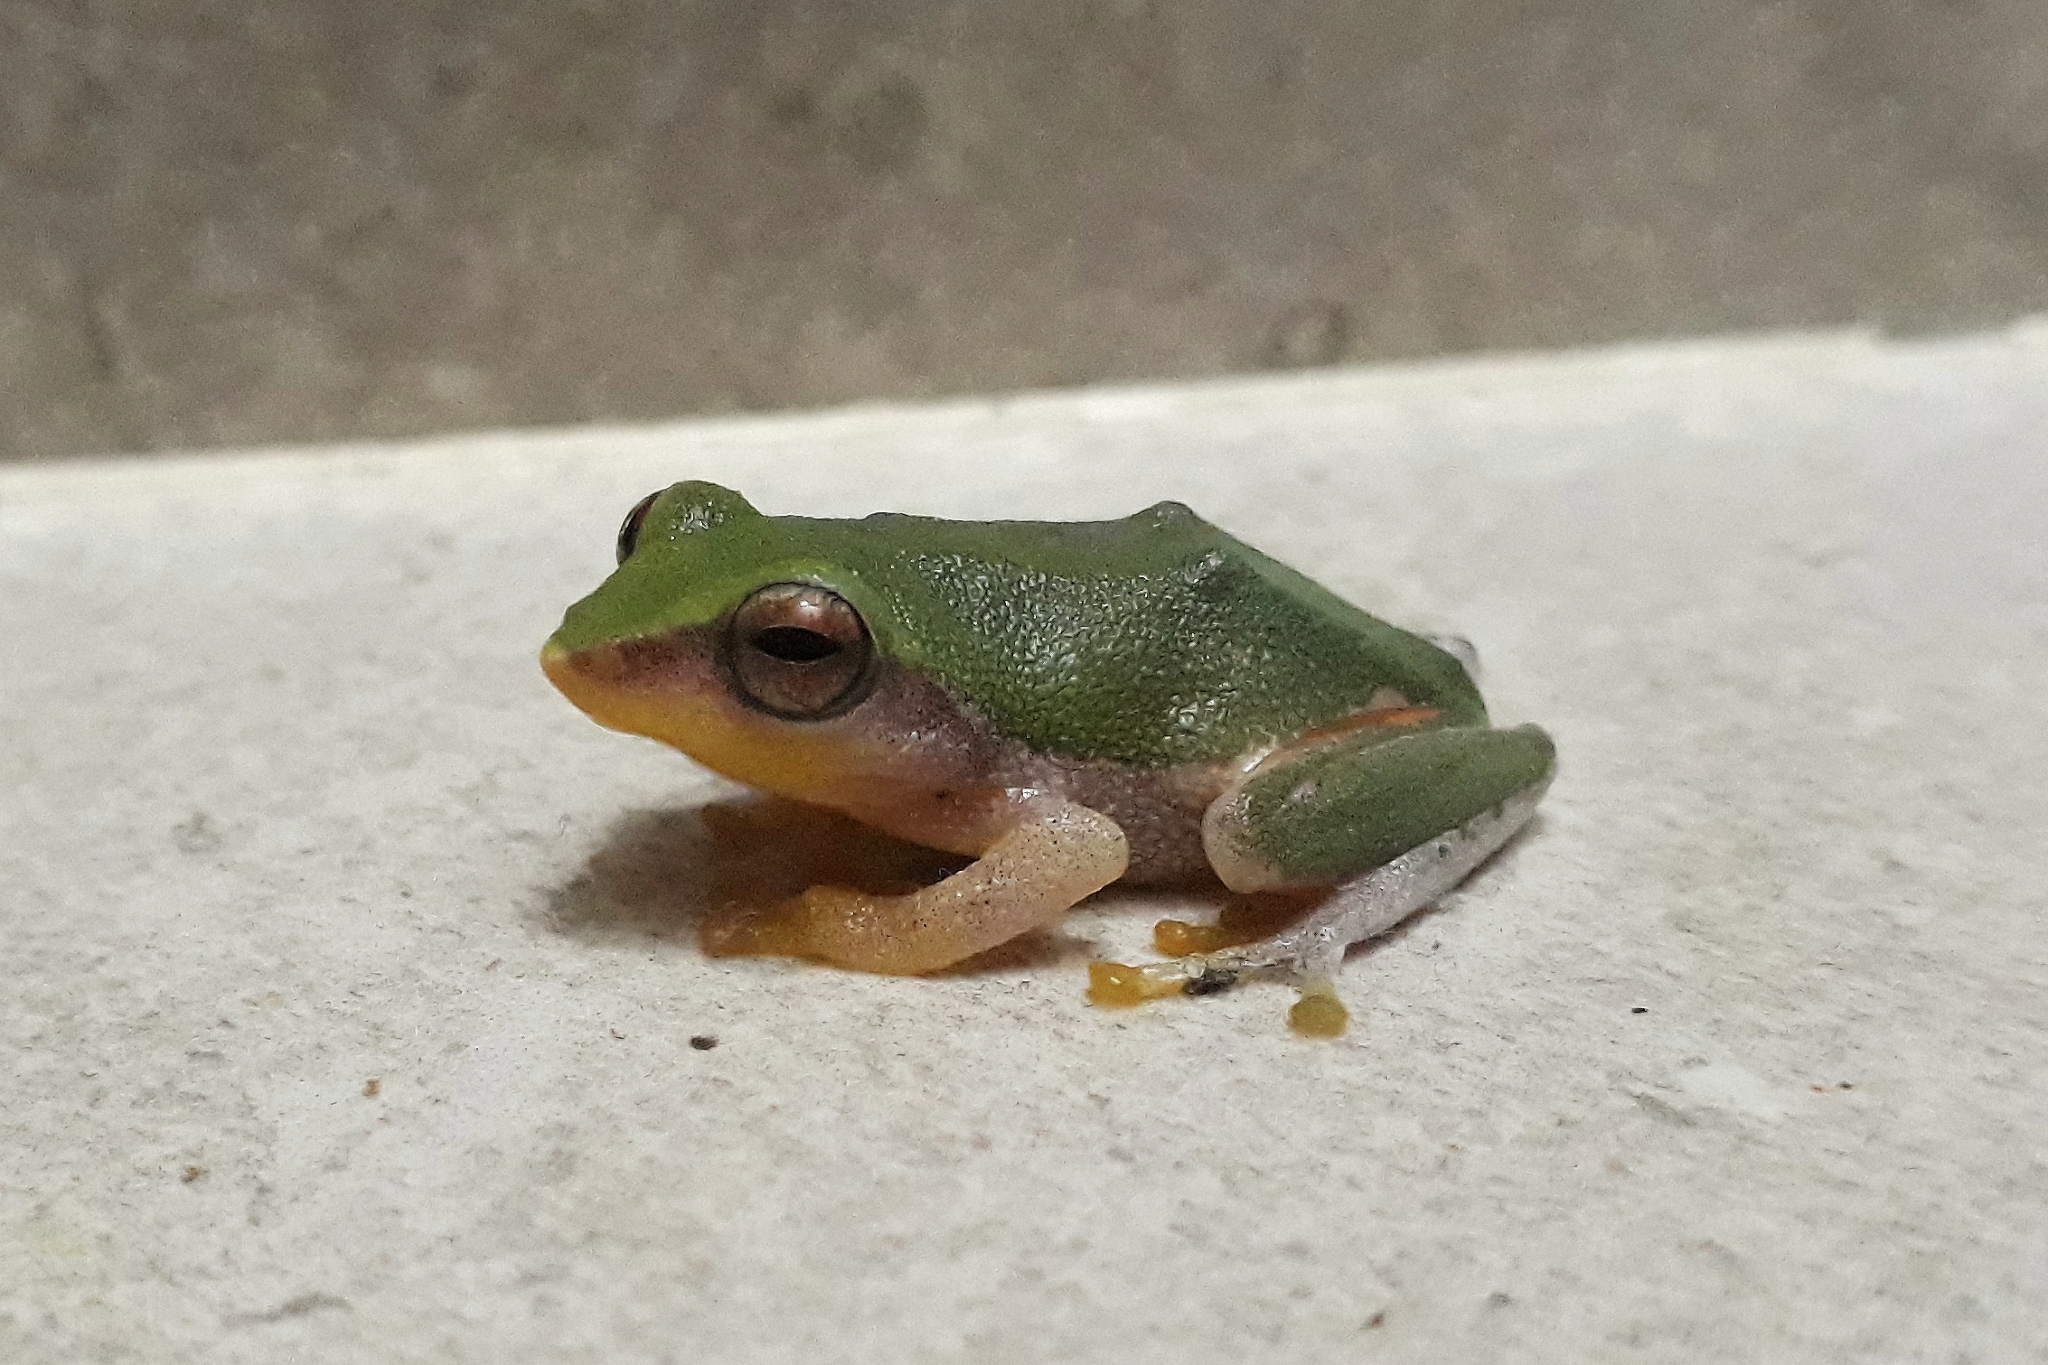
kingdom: Animalia
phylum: Chordata
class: Amphibia
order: Anura
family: Rhacophoridae
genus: Raorchestes
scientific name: Raorchestes akroparallagi
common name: Variable bush frog
